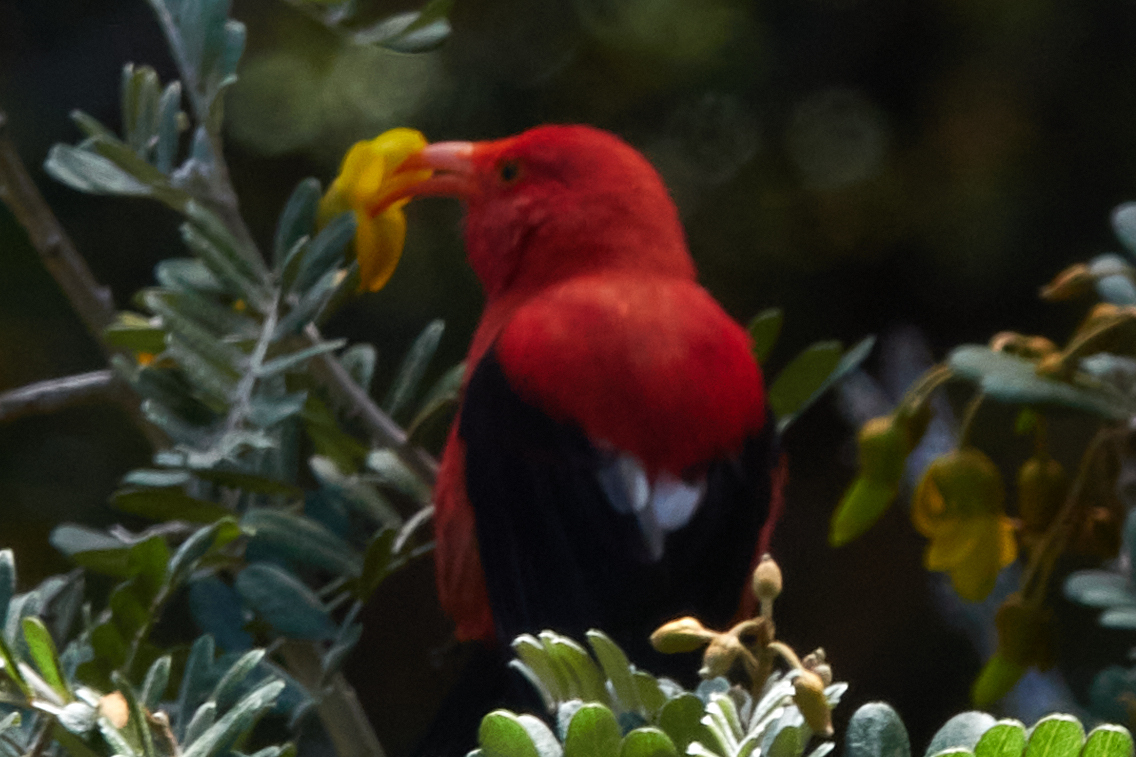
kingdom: Animalia
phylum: Chordata
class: Aves
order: Passeriformes
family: Fringillidae
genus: Vestiaria
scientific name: Vestiaria coccinea
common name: Iiwi
